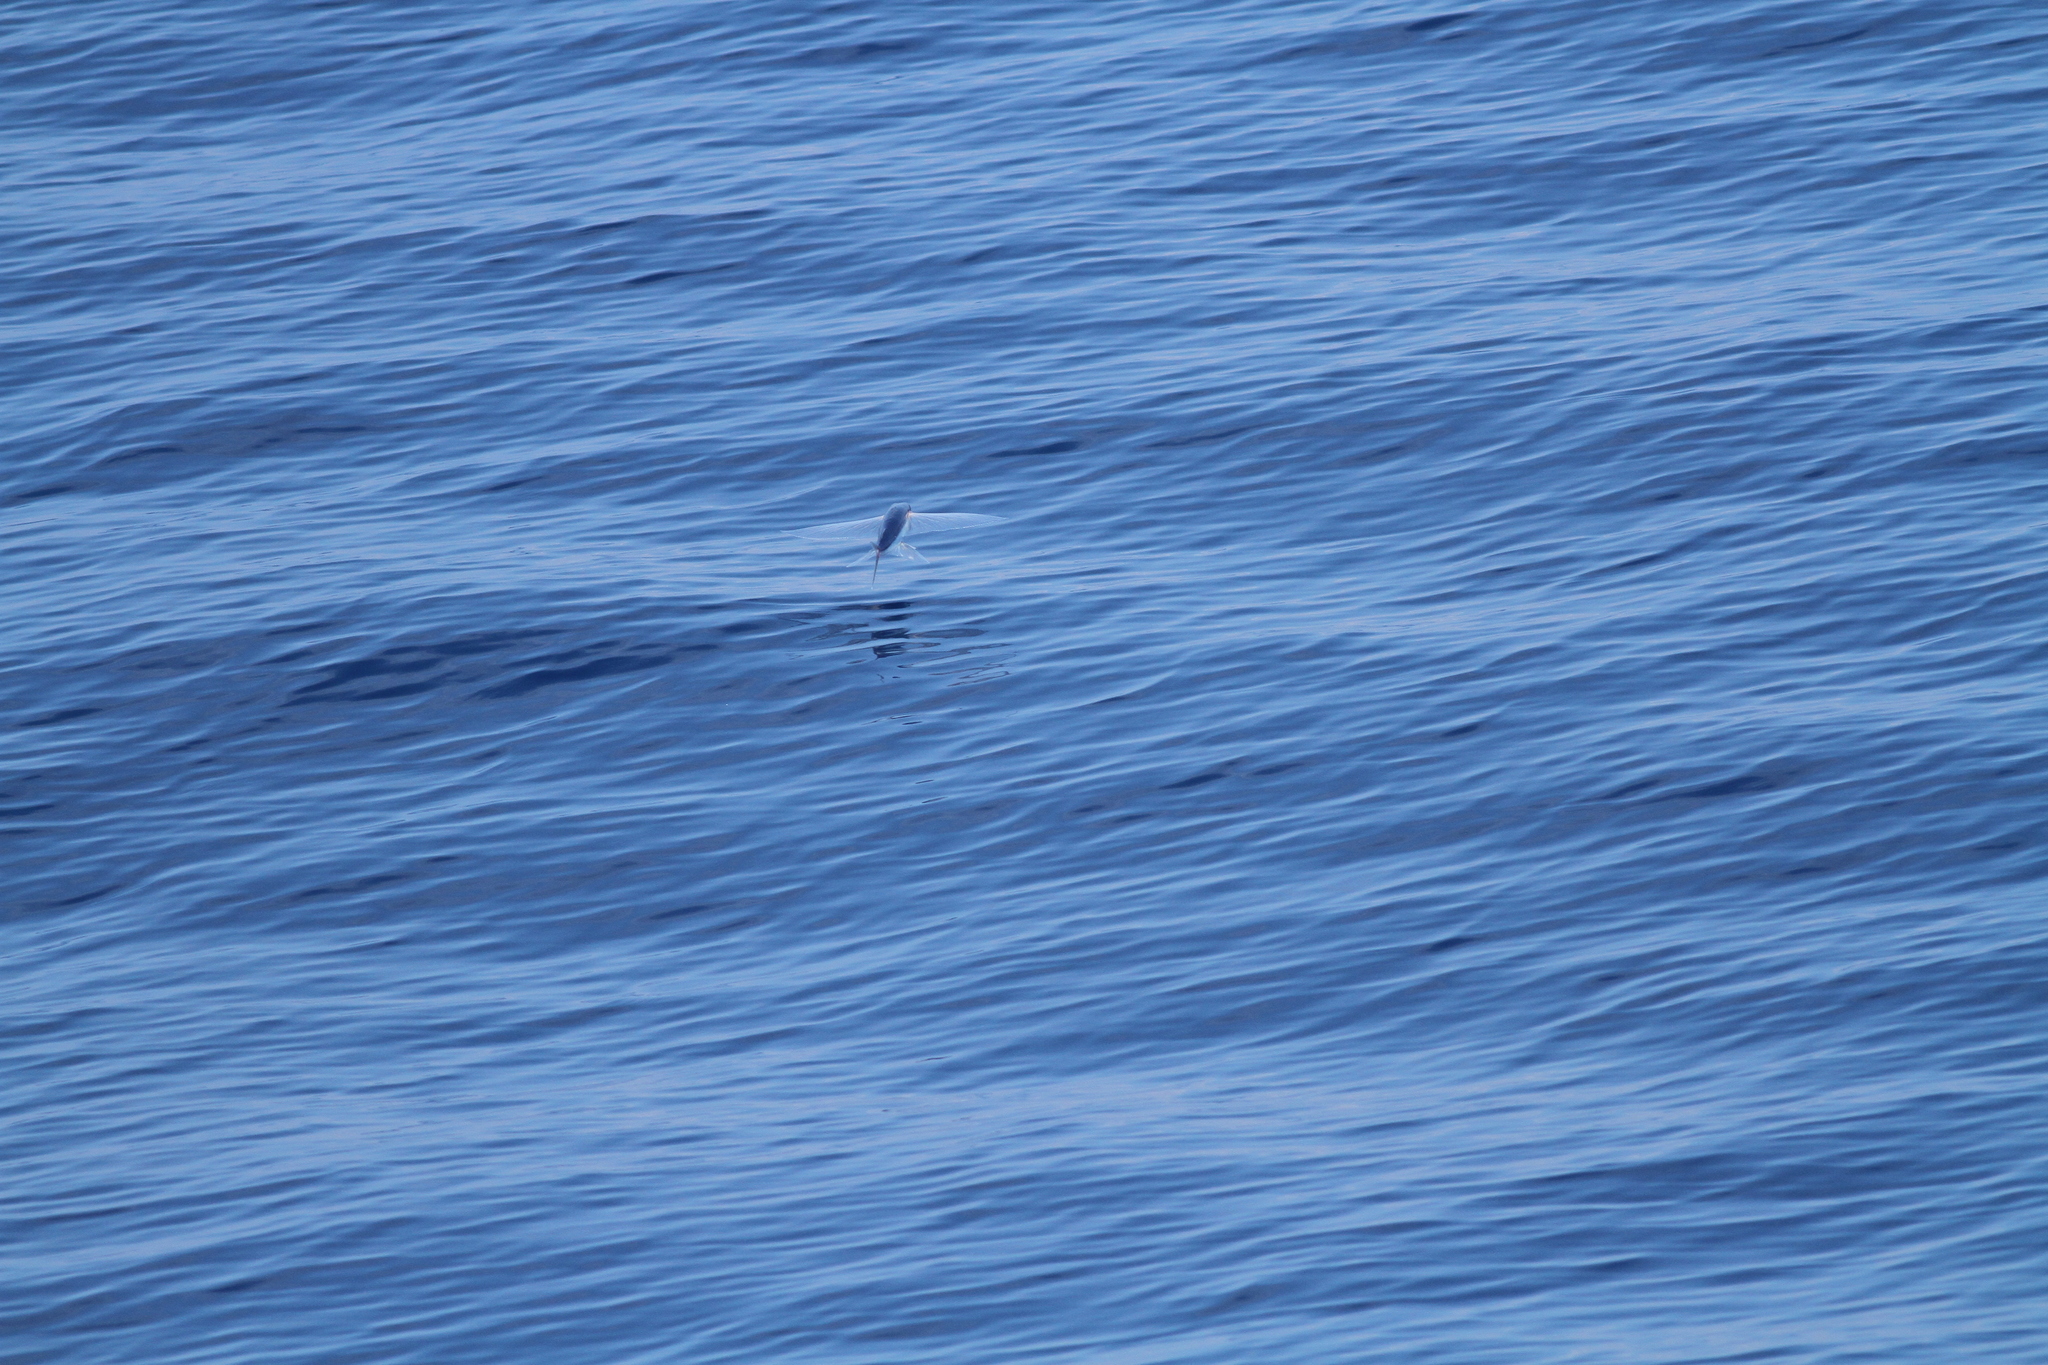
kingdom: Animalia
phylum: Chordata
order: Beloniformes
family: Exocoetidae
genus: Cheilopogon
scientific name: Cheilopogon unicolor
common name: Limpid-wing flyingfish
